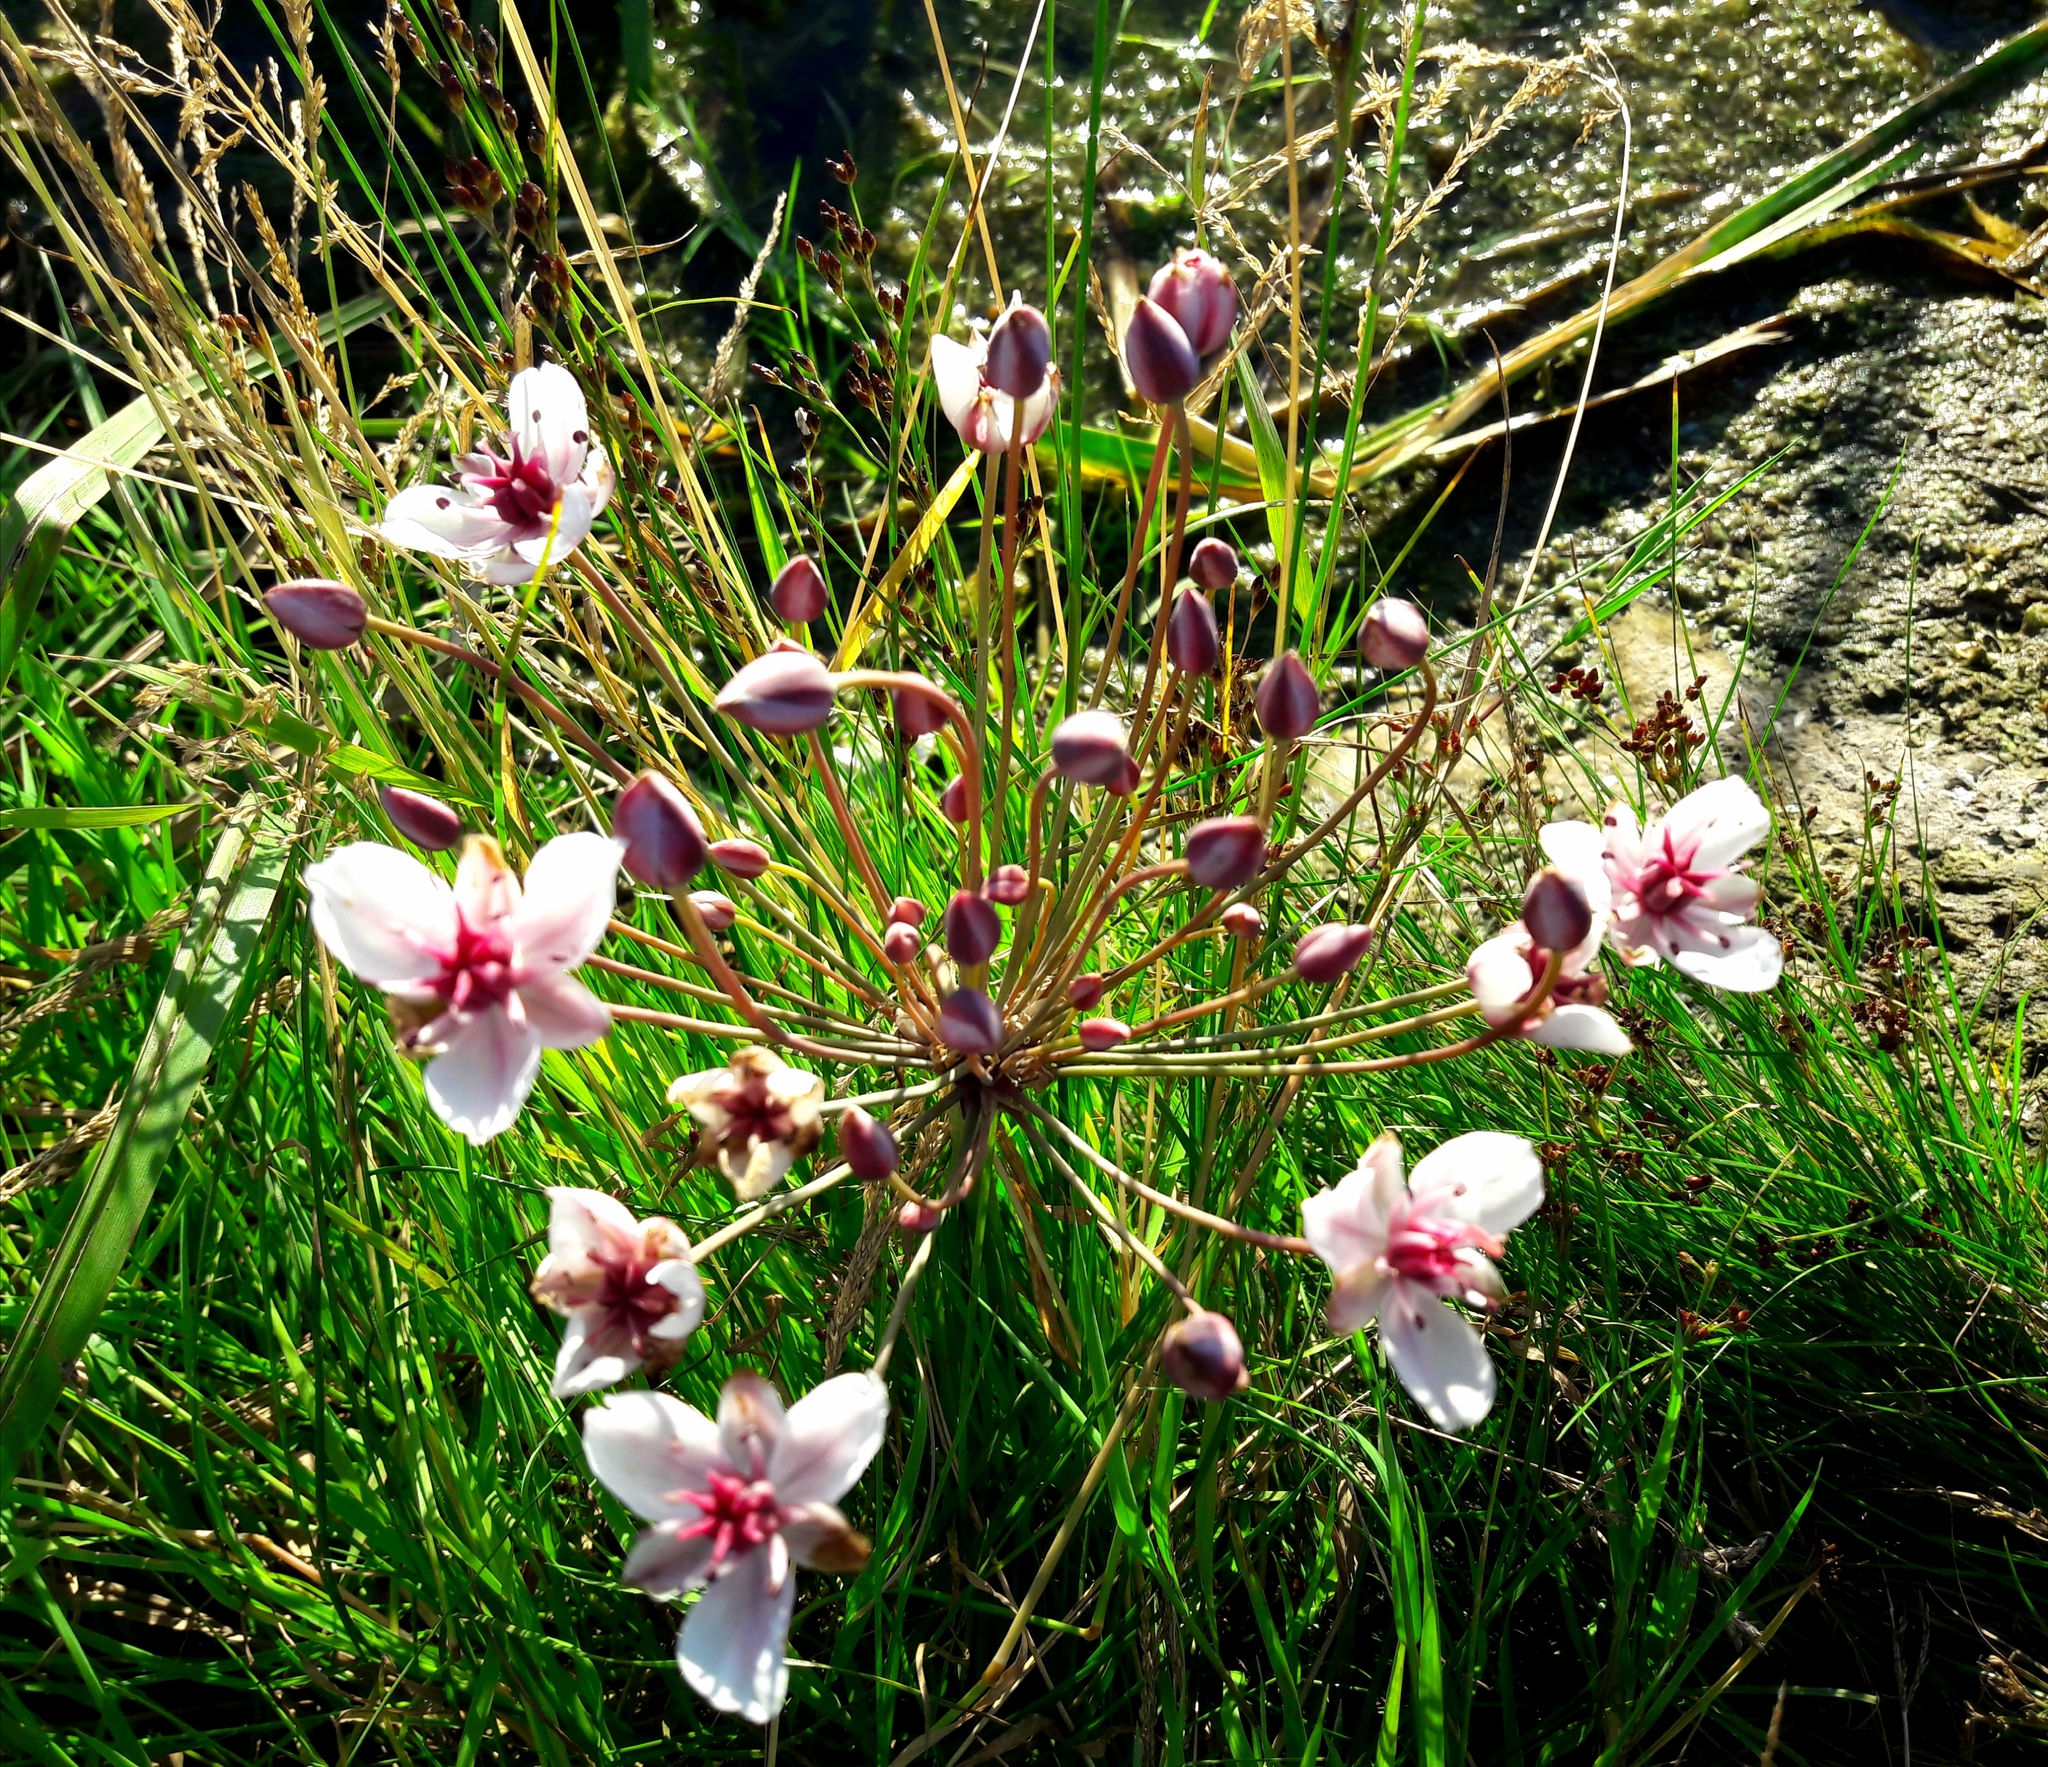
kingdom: Plantae
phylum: Tracheophyta
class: Liliopsida
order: Alismatales
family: Butomaceae
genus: Butomus
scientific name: Butomus umbellatus
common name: Flowering-rush
